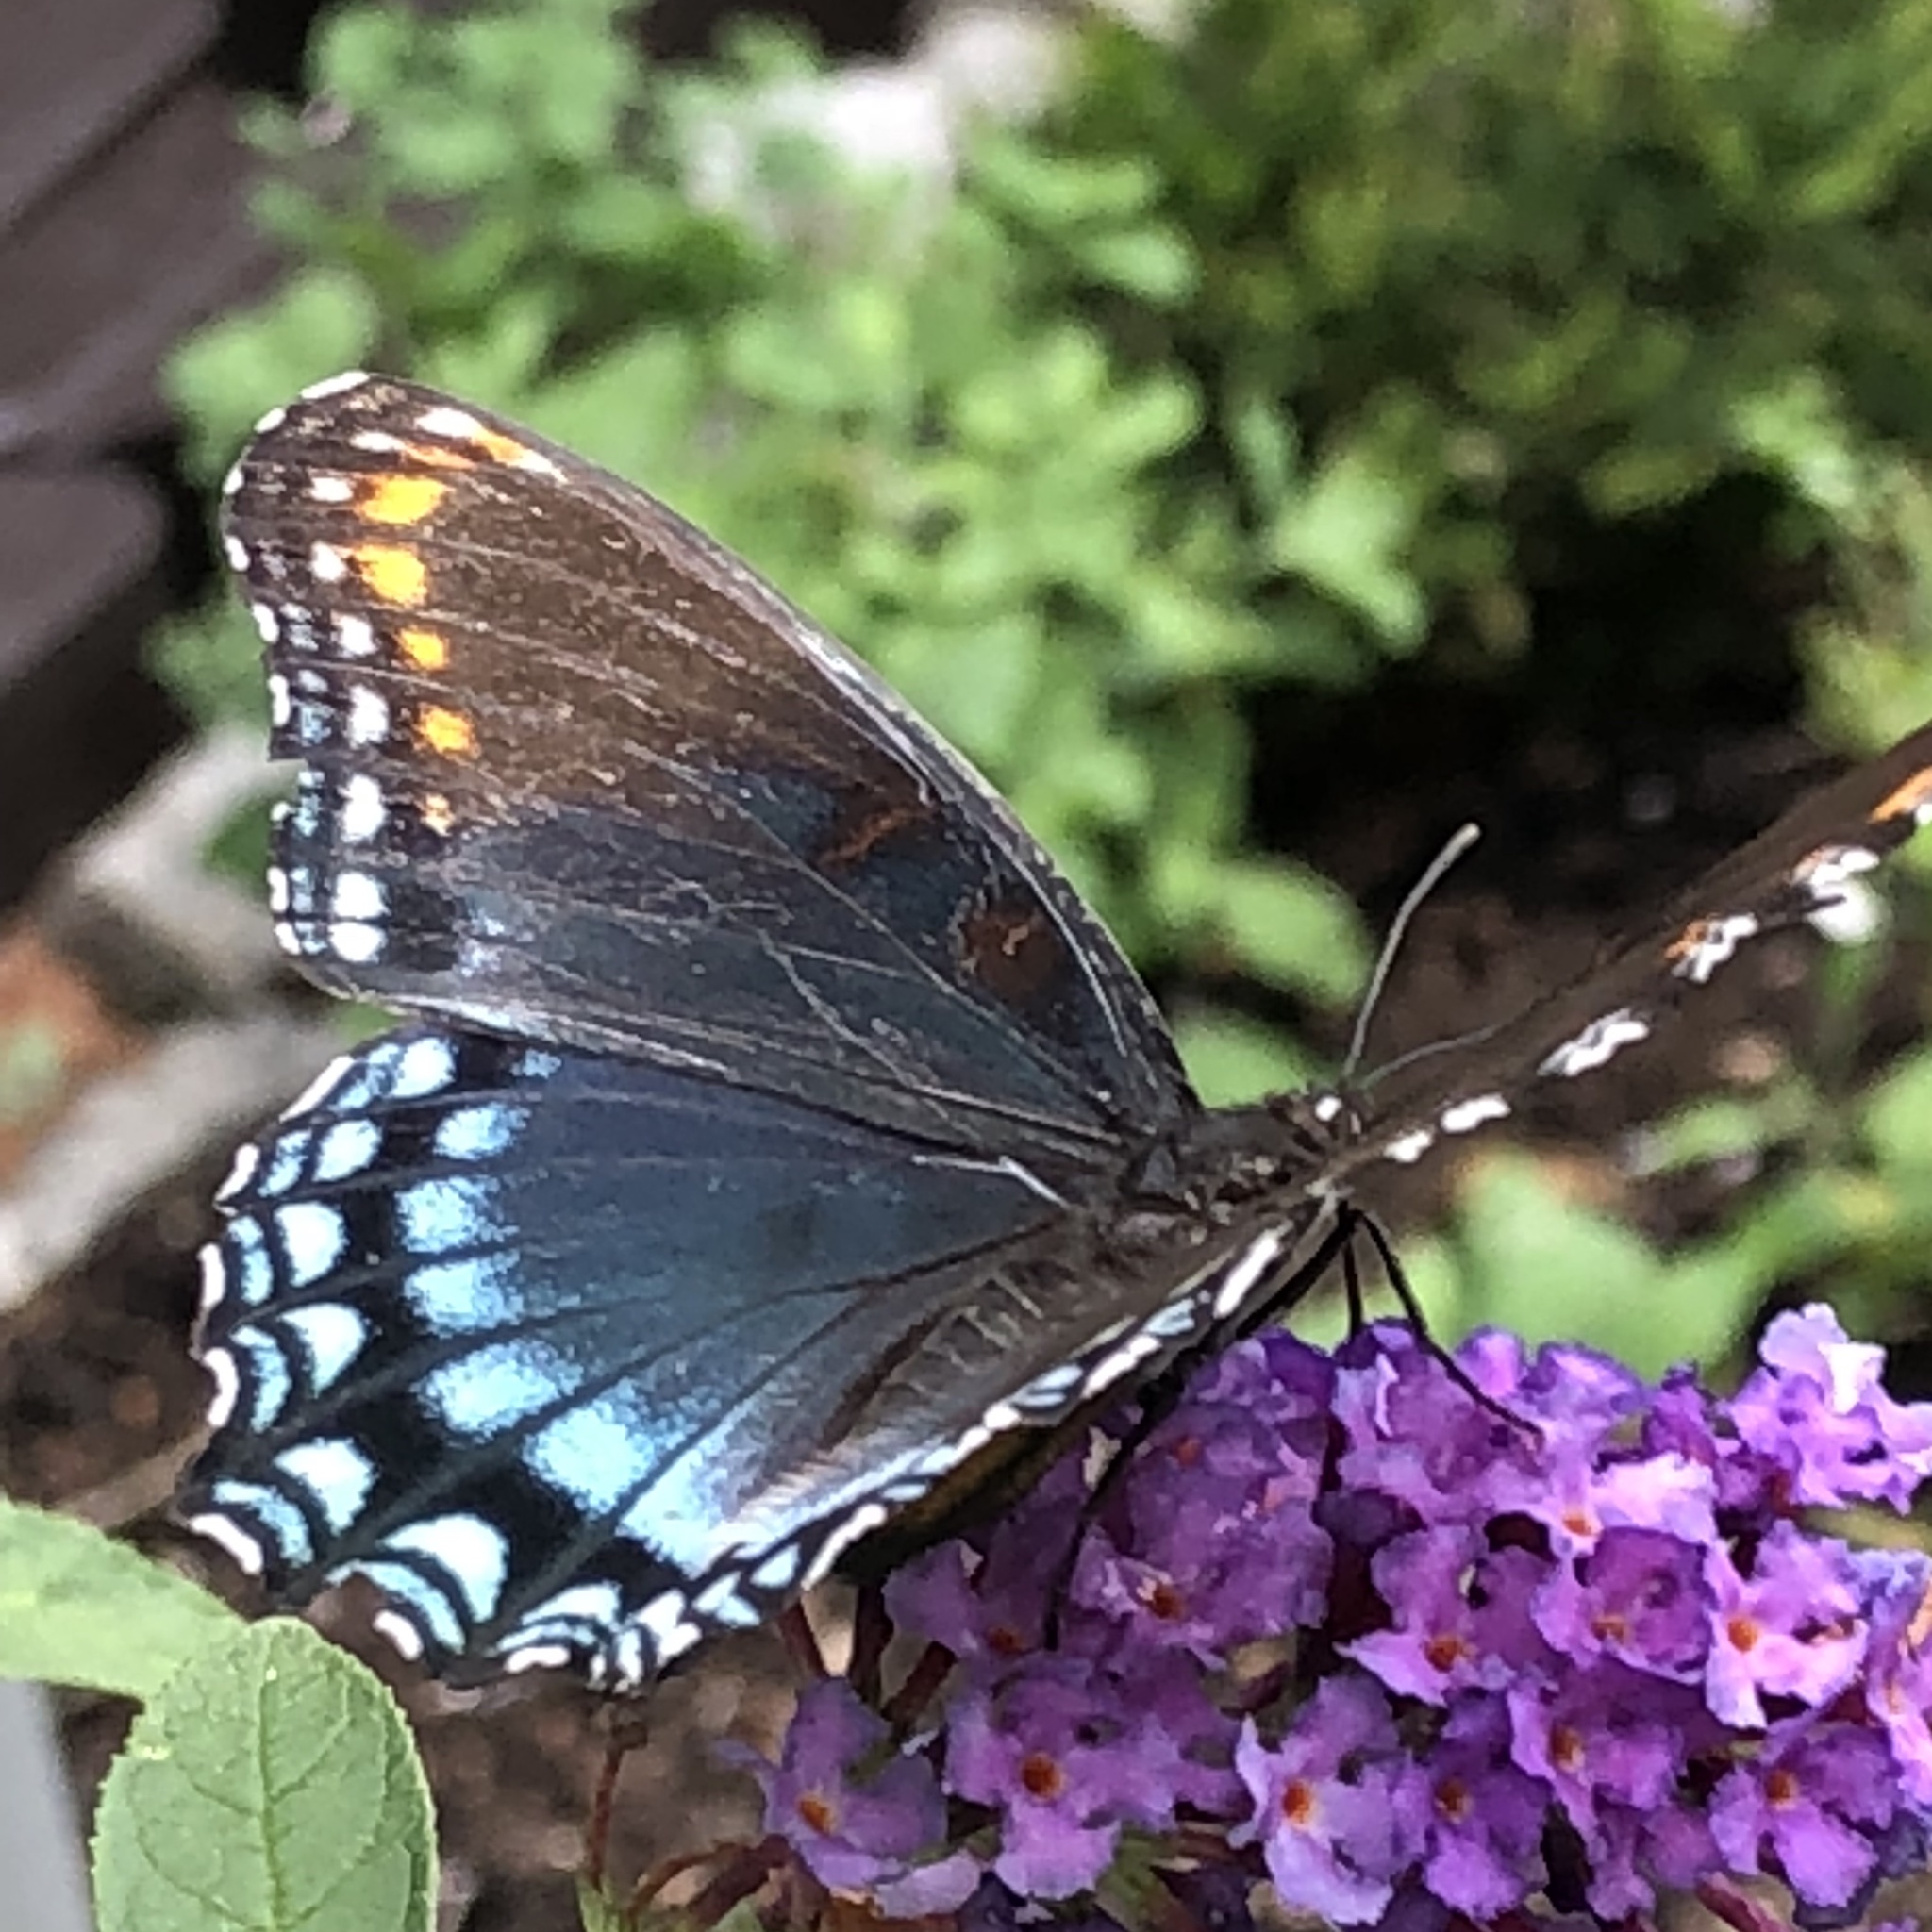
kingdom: Animalia
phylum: Arthropoda
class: Insecta
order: Lepidoptera
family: Nymphalidae
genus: Limenitis
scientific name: Limenitis astyanax
